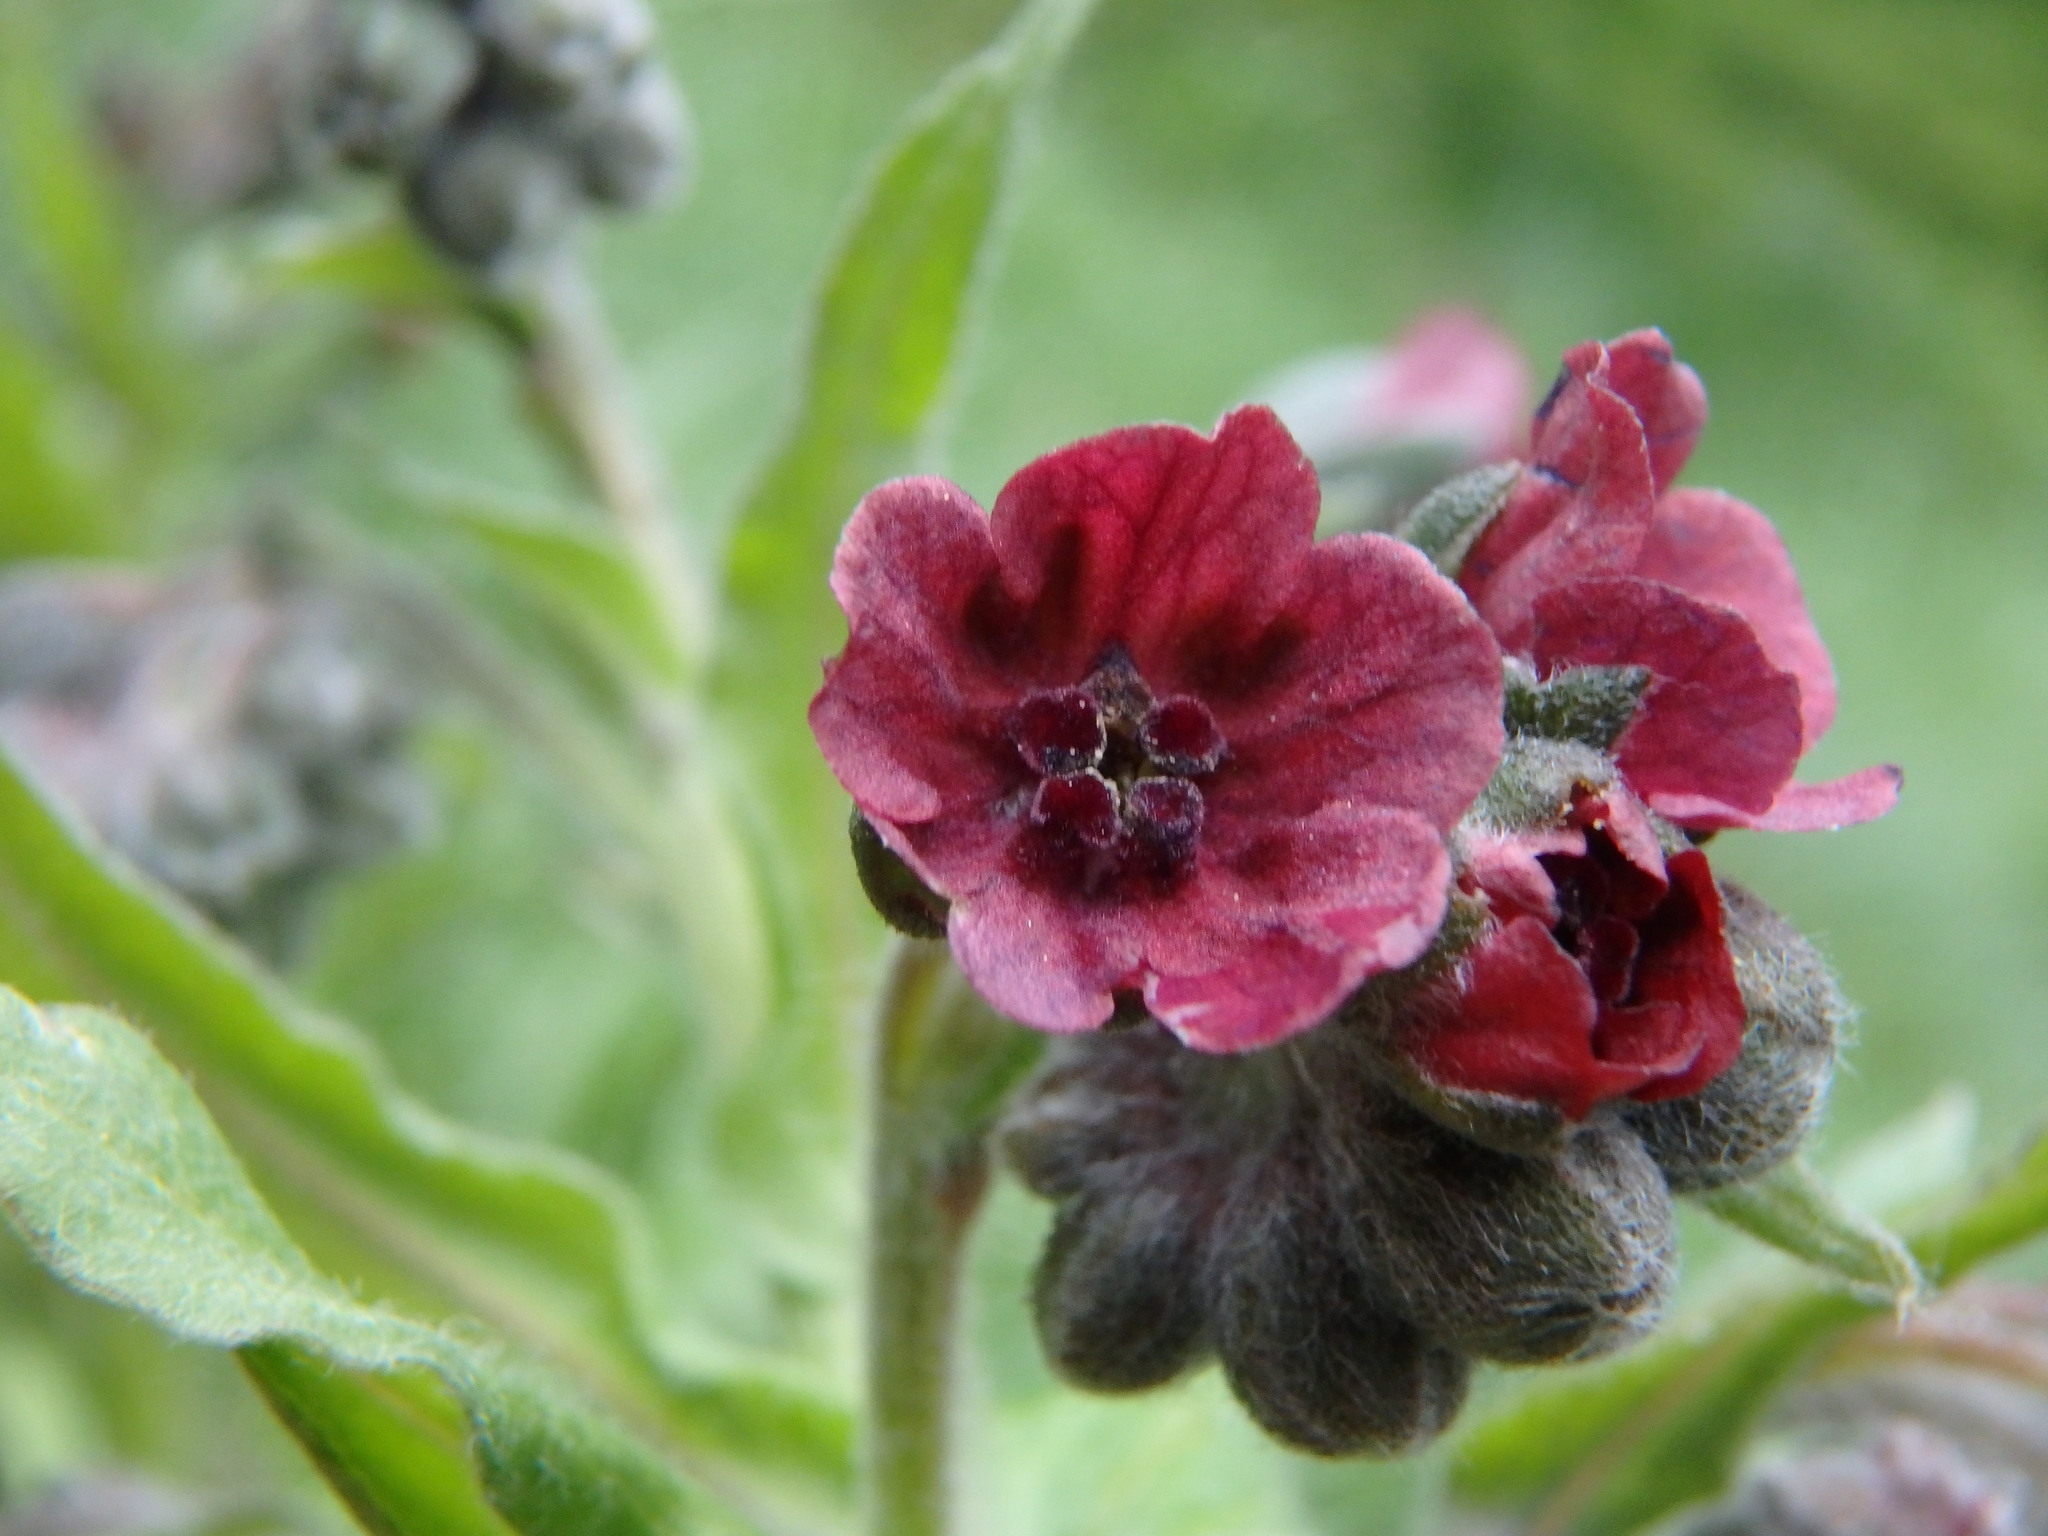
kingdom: Plantae
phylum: Tracheophyta
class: Magnoliopsida
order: Boraginales
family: Boraginaceae
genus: Cynoglossum
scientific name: Cynoglossum officinale
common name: Hound's-tongue
